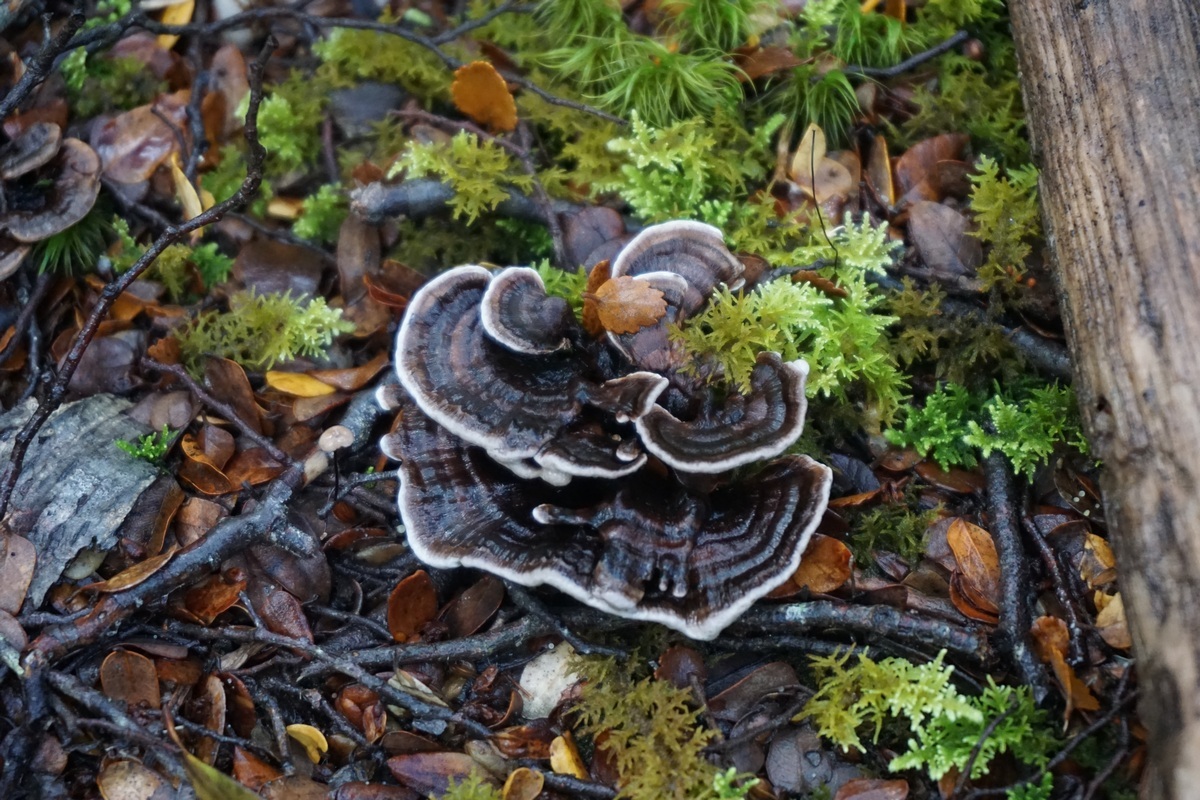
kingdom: Fungi
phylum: Basidiomycota
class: Agaricomycetes
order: Thelephorales
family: Thelephoraceae
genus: Phellodon
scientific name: Phellodon nothofagi
